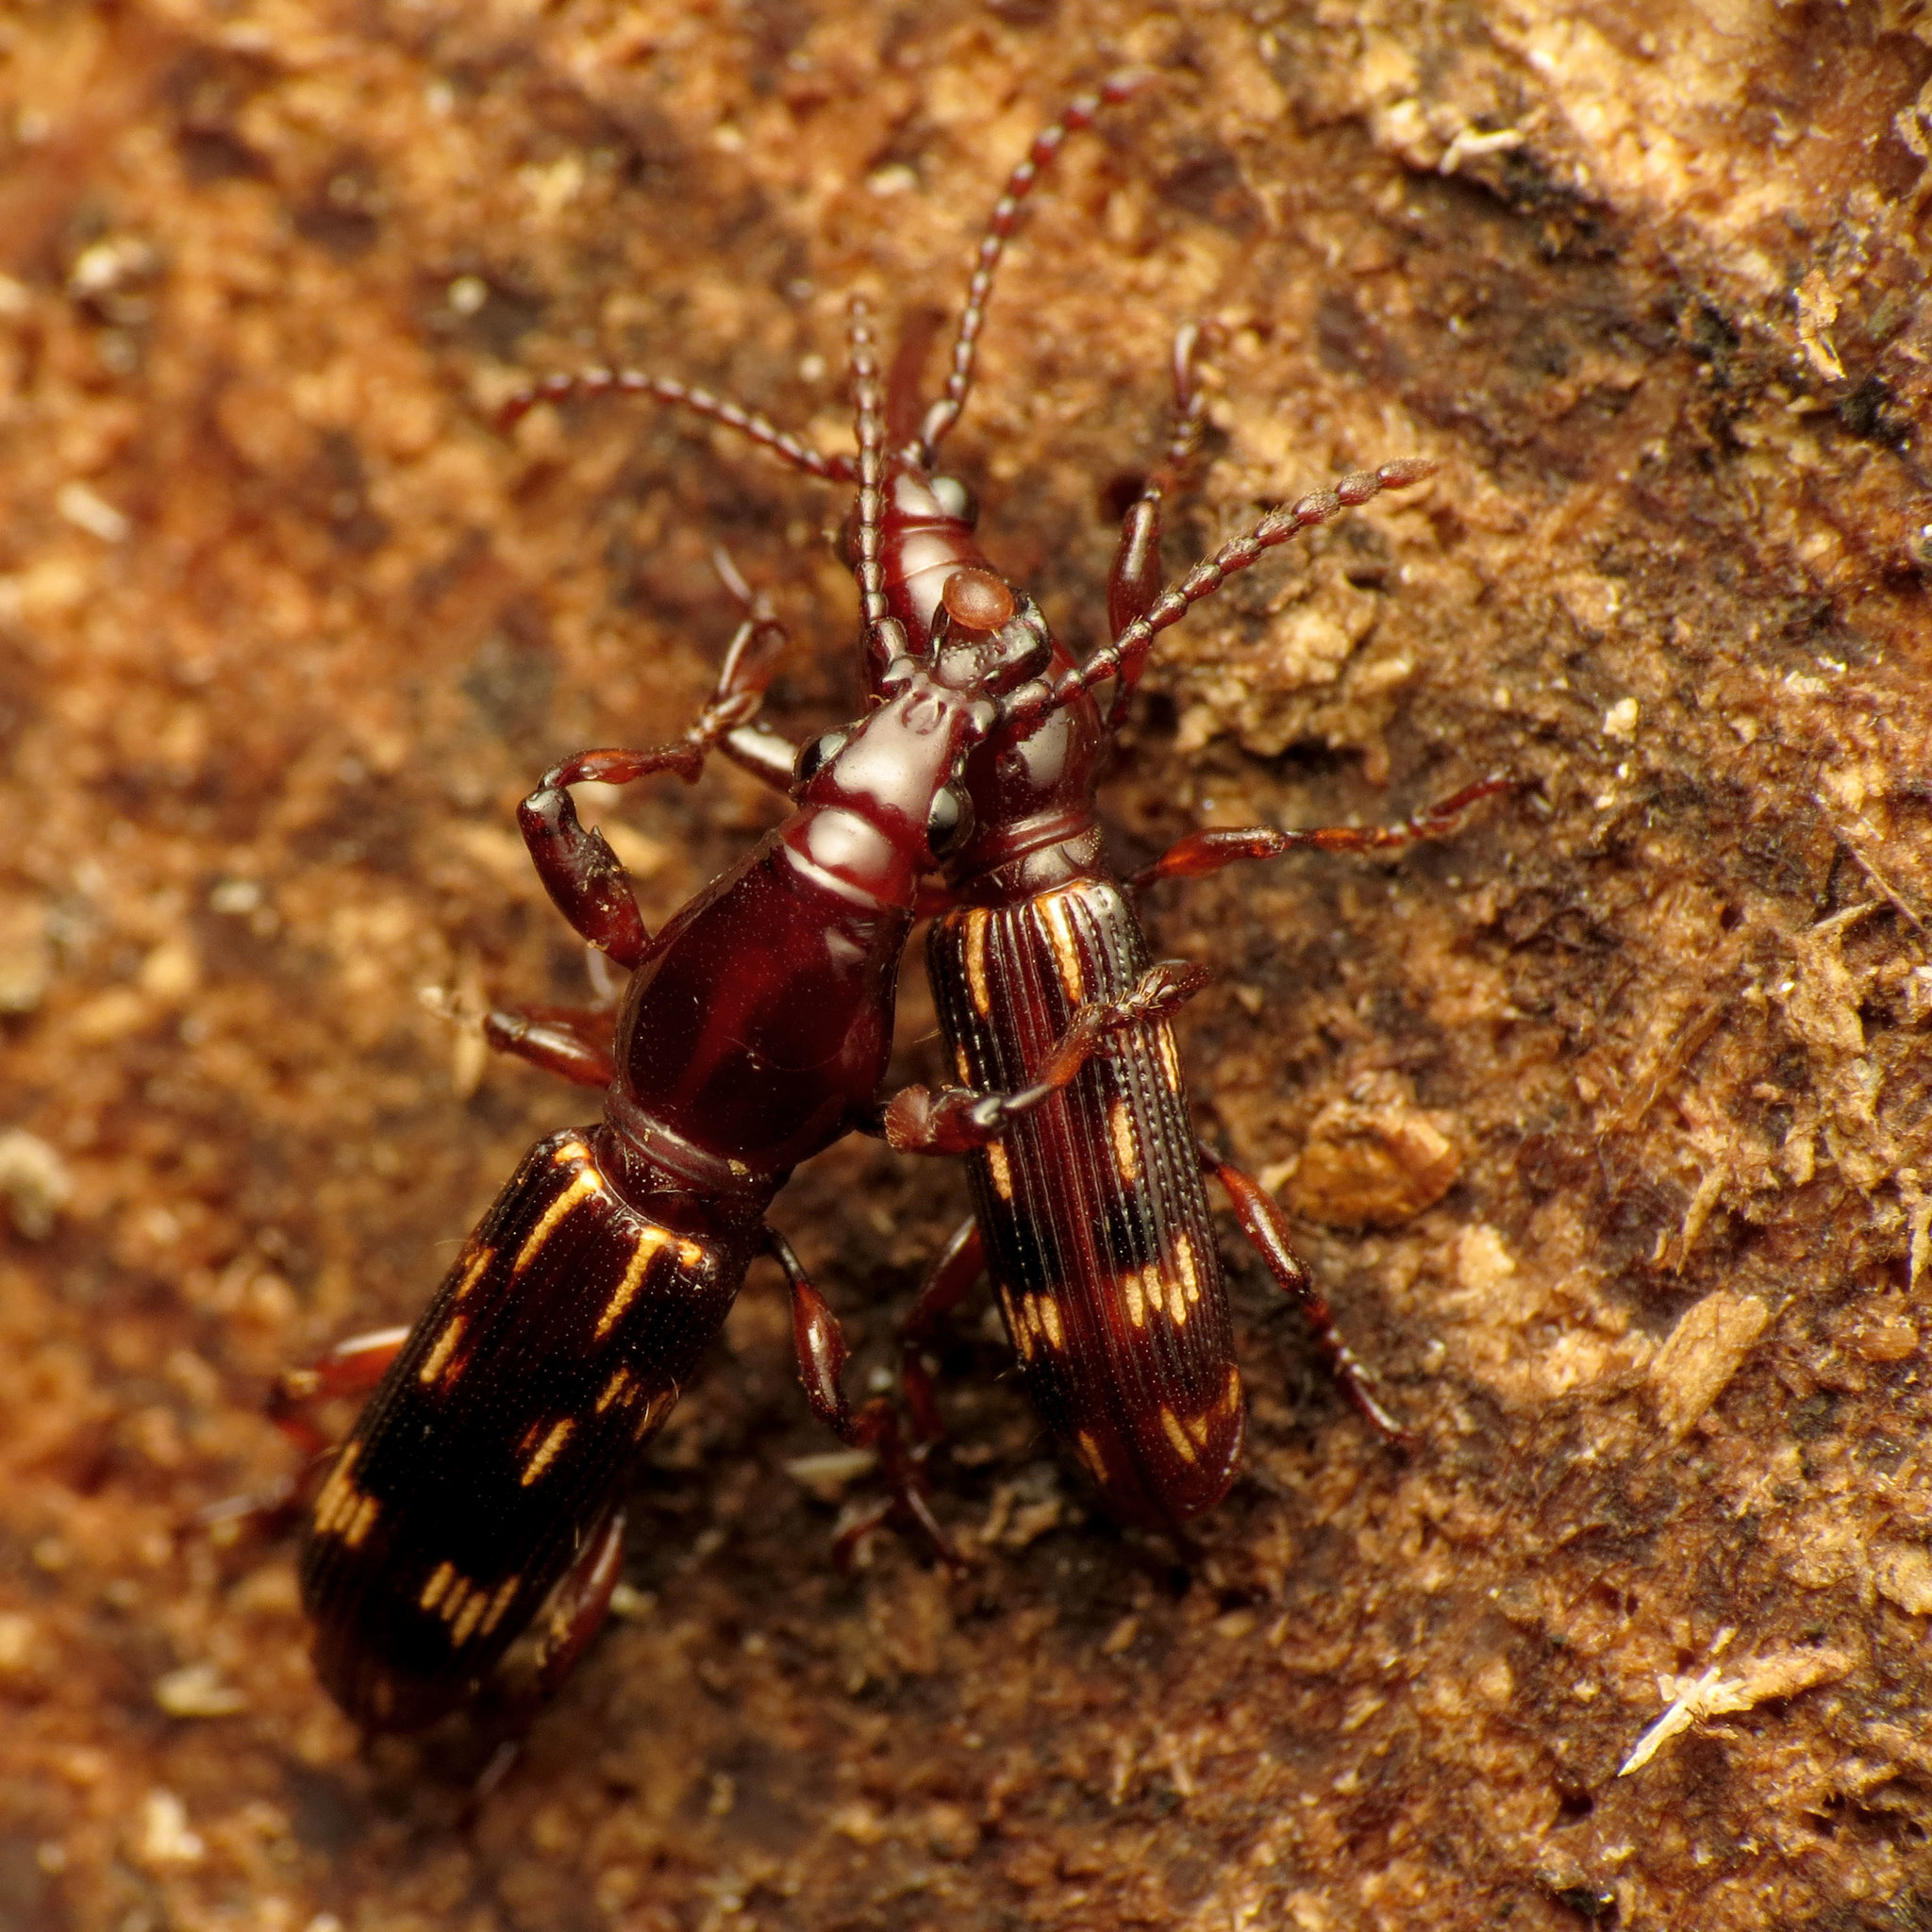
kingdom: Animalia
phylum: Arthropoda
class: Insecta
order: Coleoptera
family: Brentidae
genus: Arrenodes
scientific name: Arrenodes minutus
